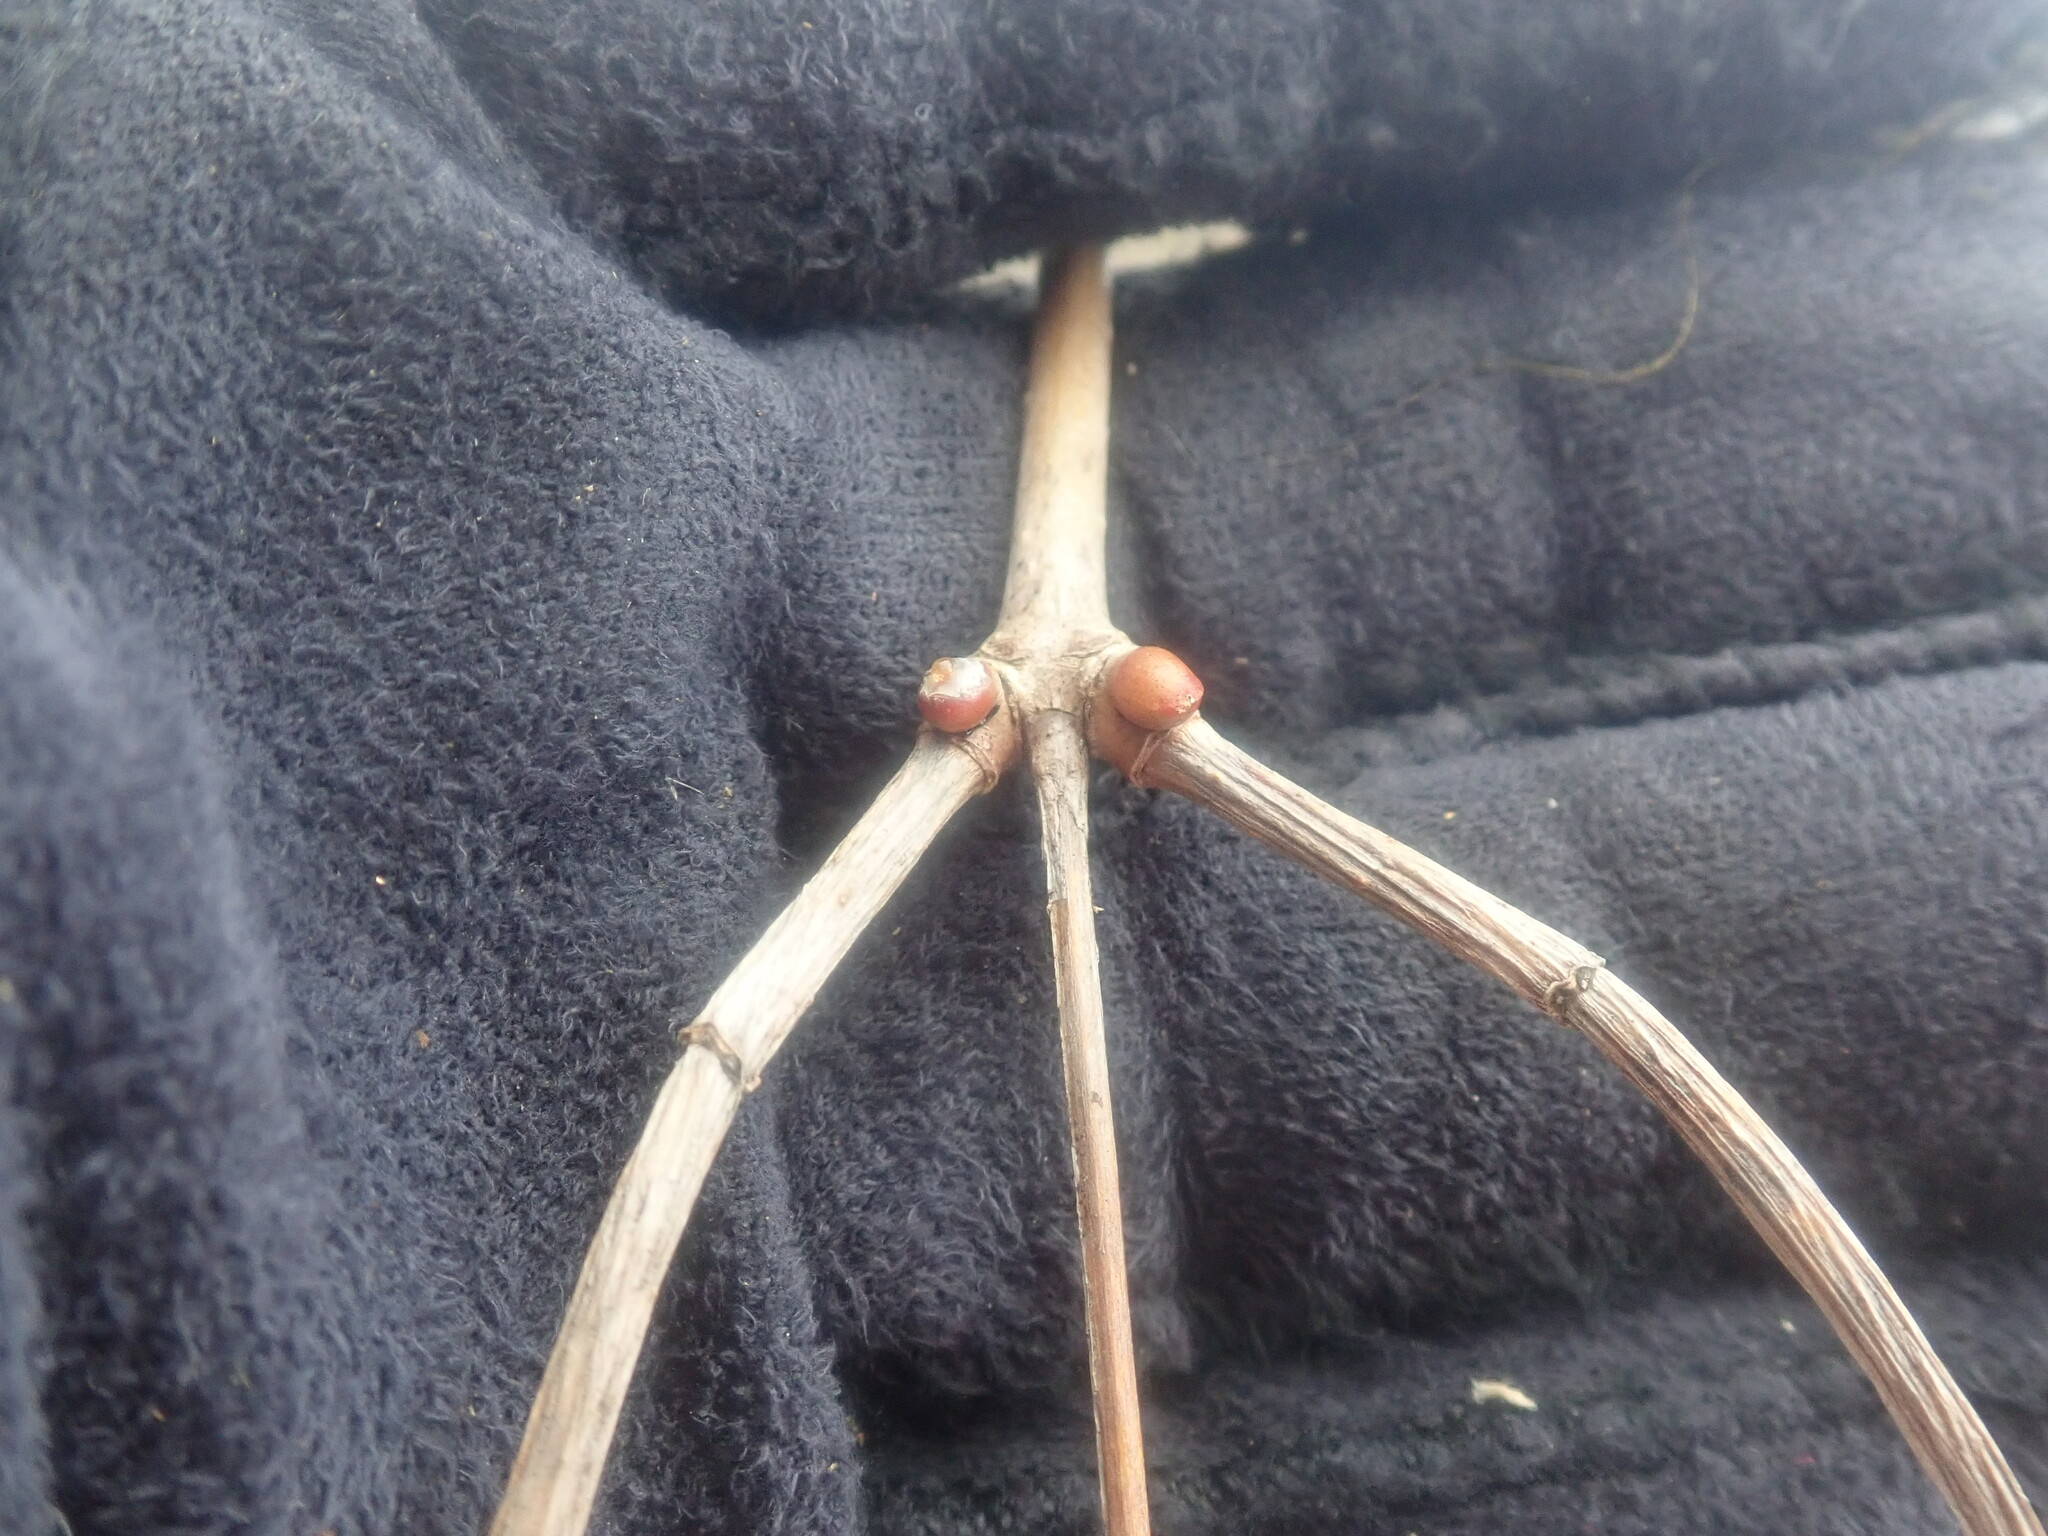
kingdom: Plantae
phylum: Tracheophyta
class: Magnoliopsida
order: Dipsacales
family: Viburnaceae
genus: Viburnum
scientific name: Viburnum opulus
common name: Guelder-rose
